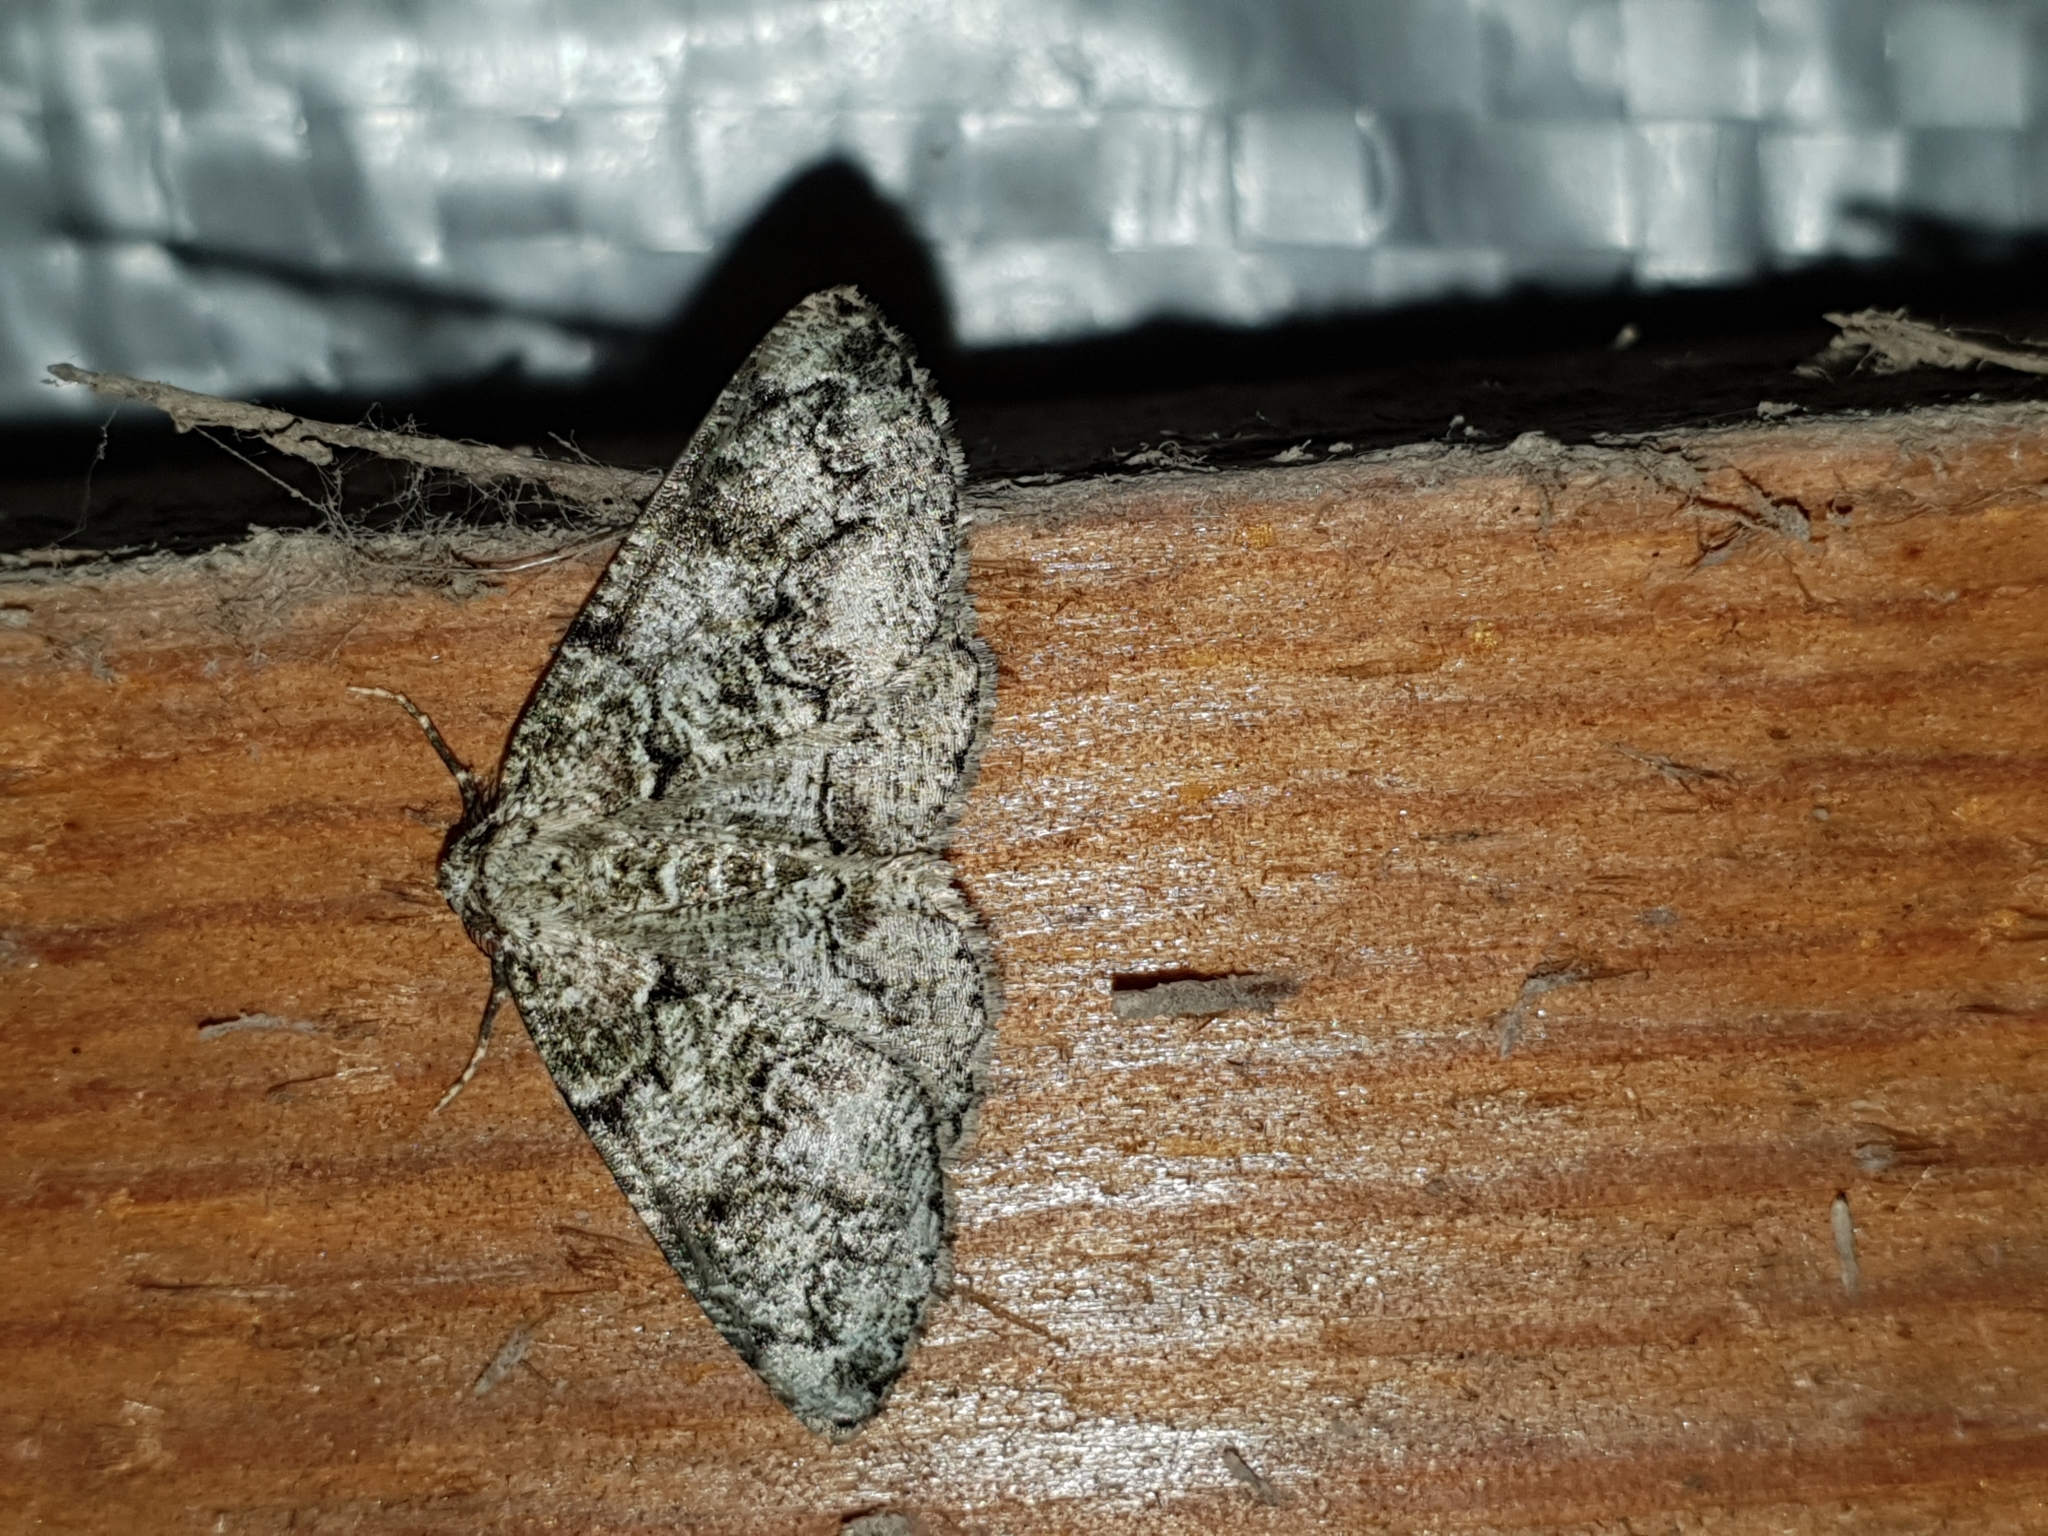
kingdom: Animalia
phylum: Arthropoda
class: Insecta
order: Lepidoptera
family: Geometridae
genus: Cleorodes
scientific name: Cleorodes lichenaria
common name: Brussels lace
